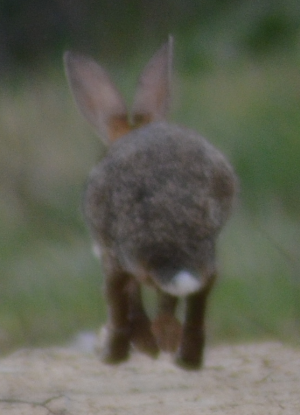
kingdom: Animalia
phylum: Chordata
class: Mammalia
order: Lagomorpha
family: Leporidae
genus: Oryctolagus
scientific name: Oryctolagus cuniculus
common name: European rabbit
